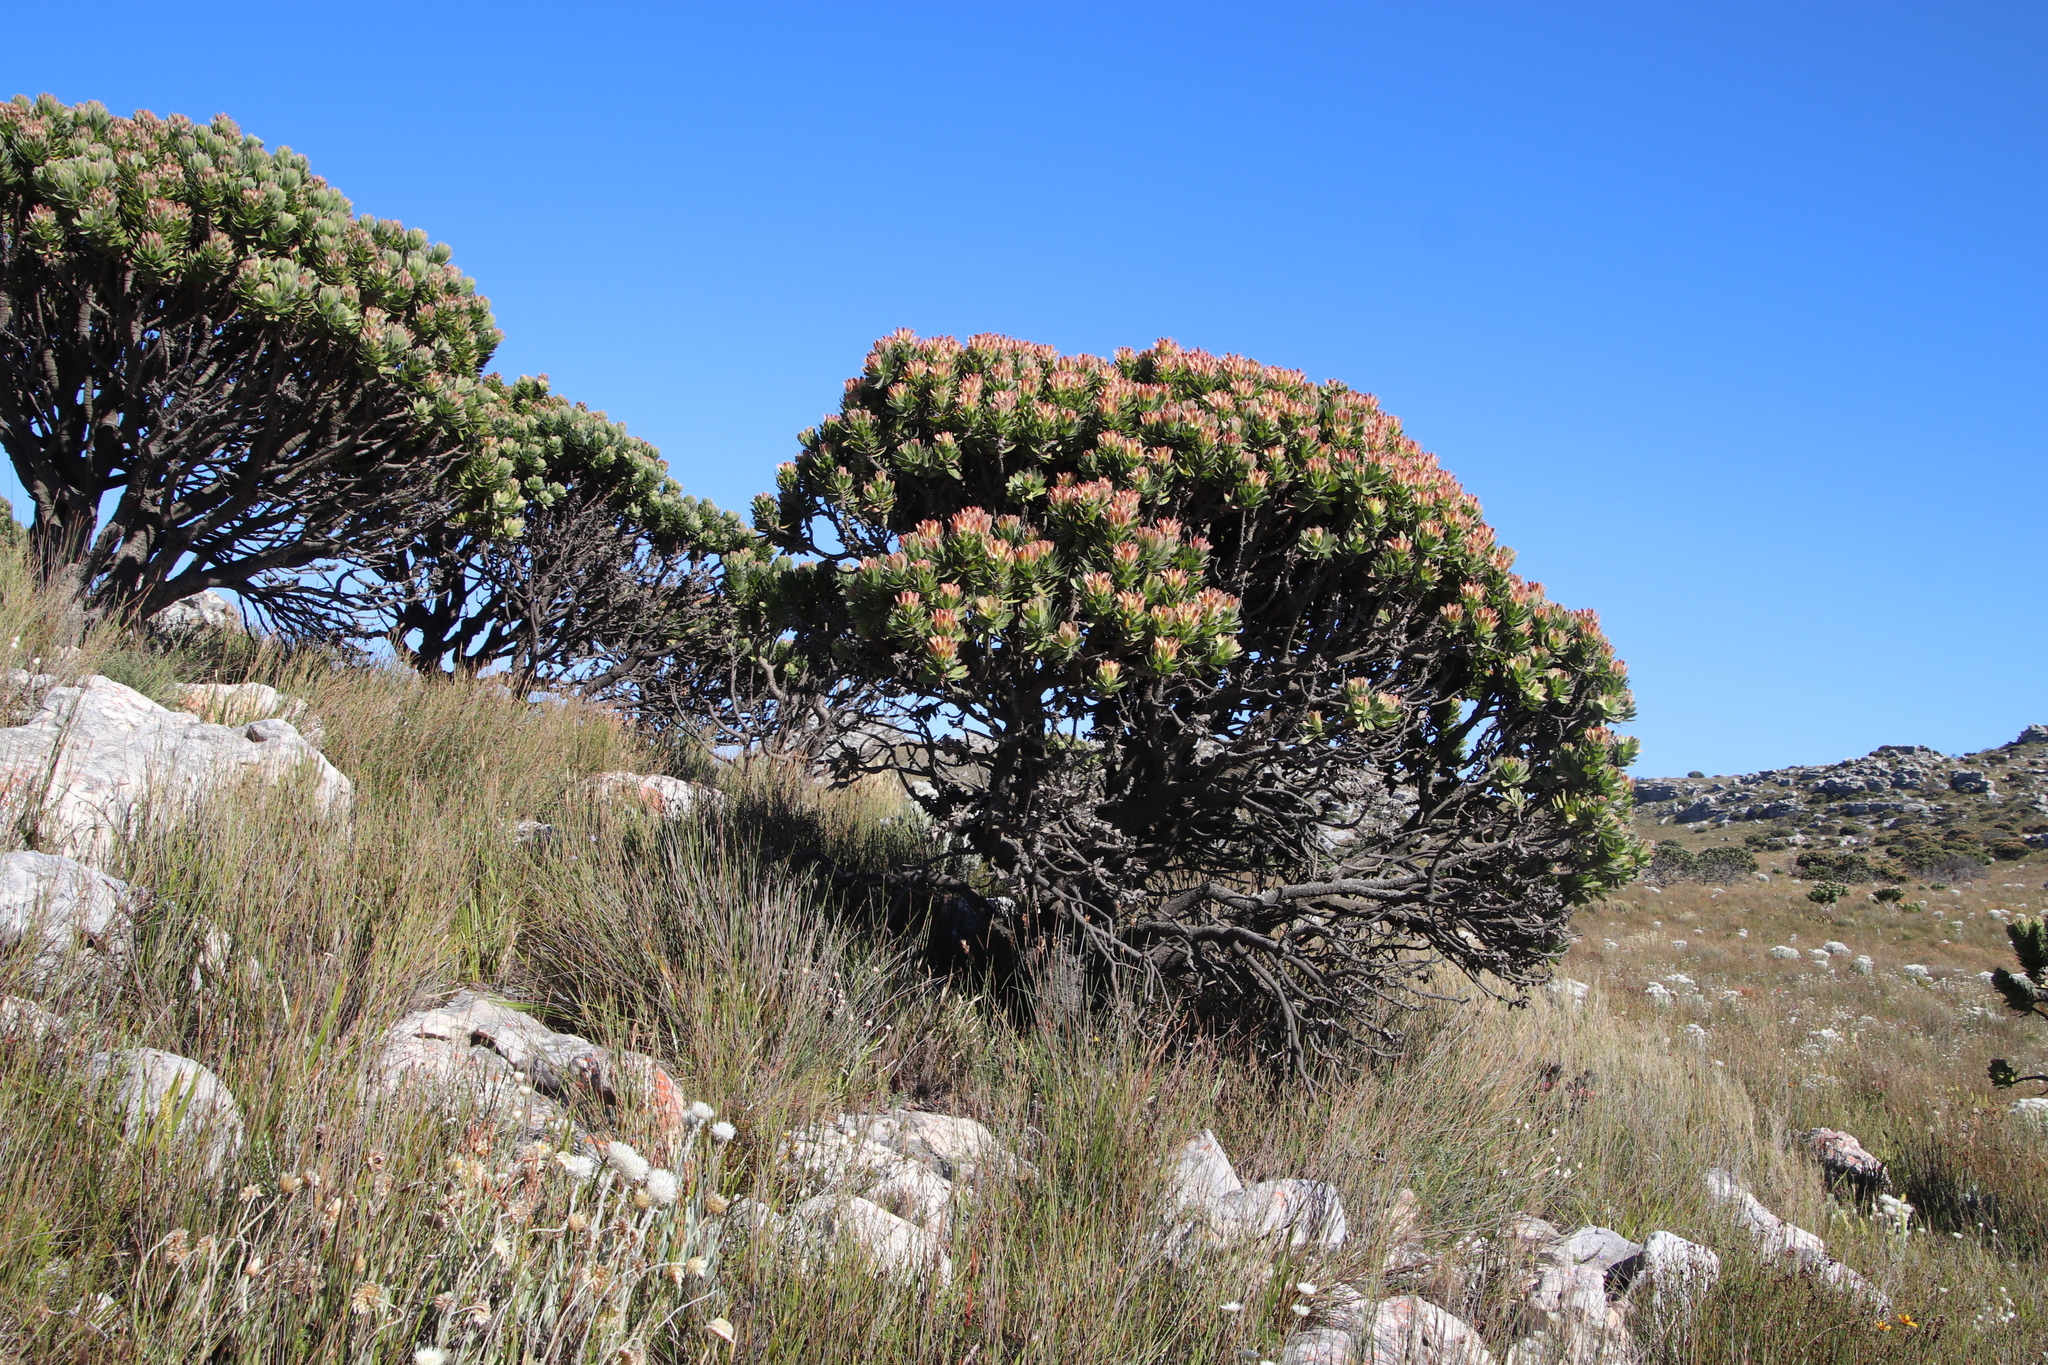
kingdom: Plantae
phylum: Tracheophyta
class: Magnoliopsida
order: Proteales
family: Proteaceae
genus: Mimetes
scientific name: Mimetes fimbriifolius
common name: Fringed bottlebrush
